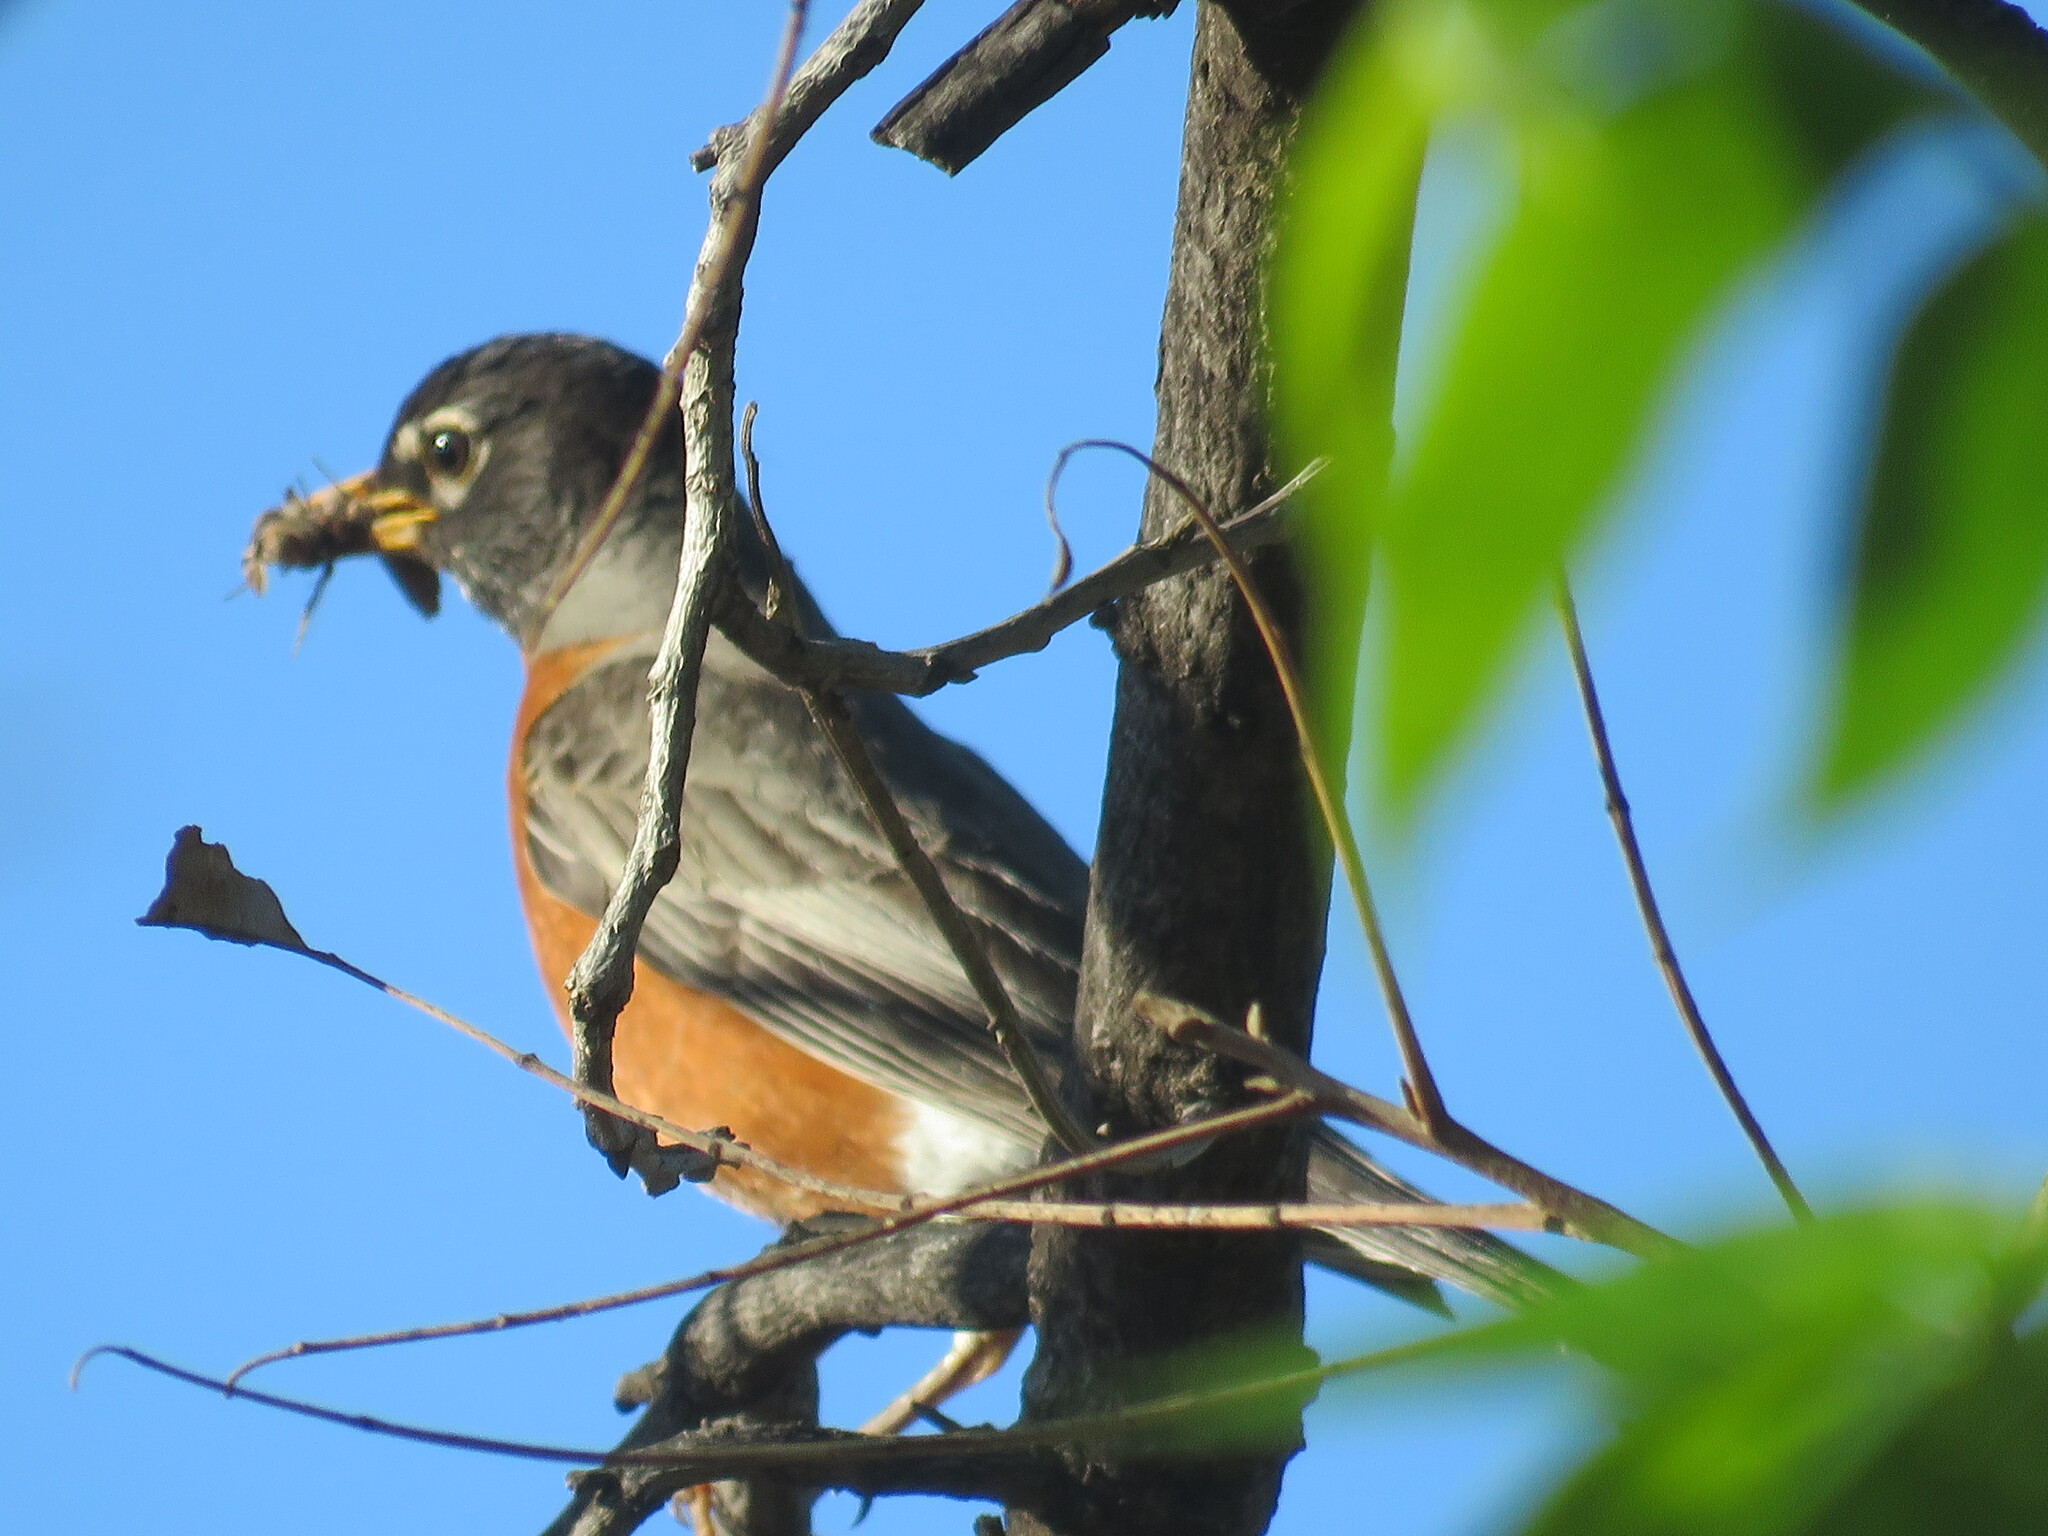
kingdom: Animalia
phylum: Chordata
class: Aves
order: Passeriformes
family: Turdidae
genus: Turdus
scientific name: Turdus migratorius
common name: American robin
